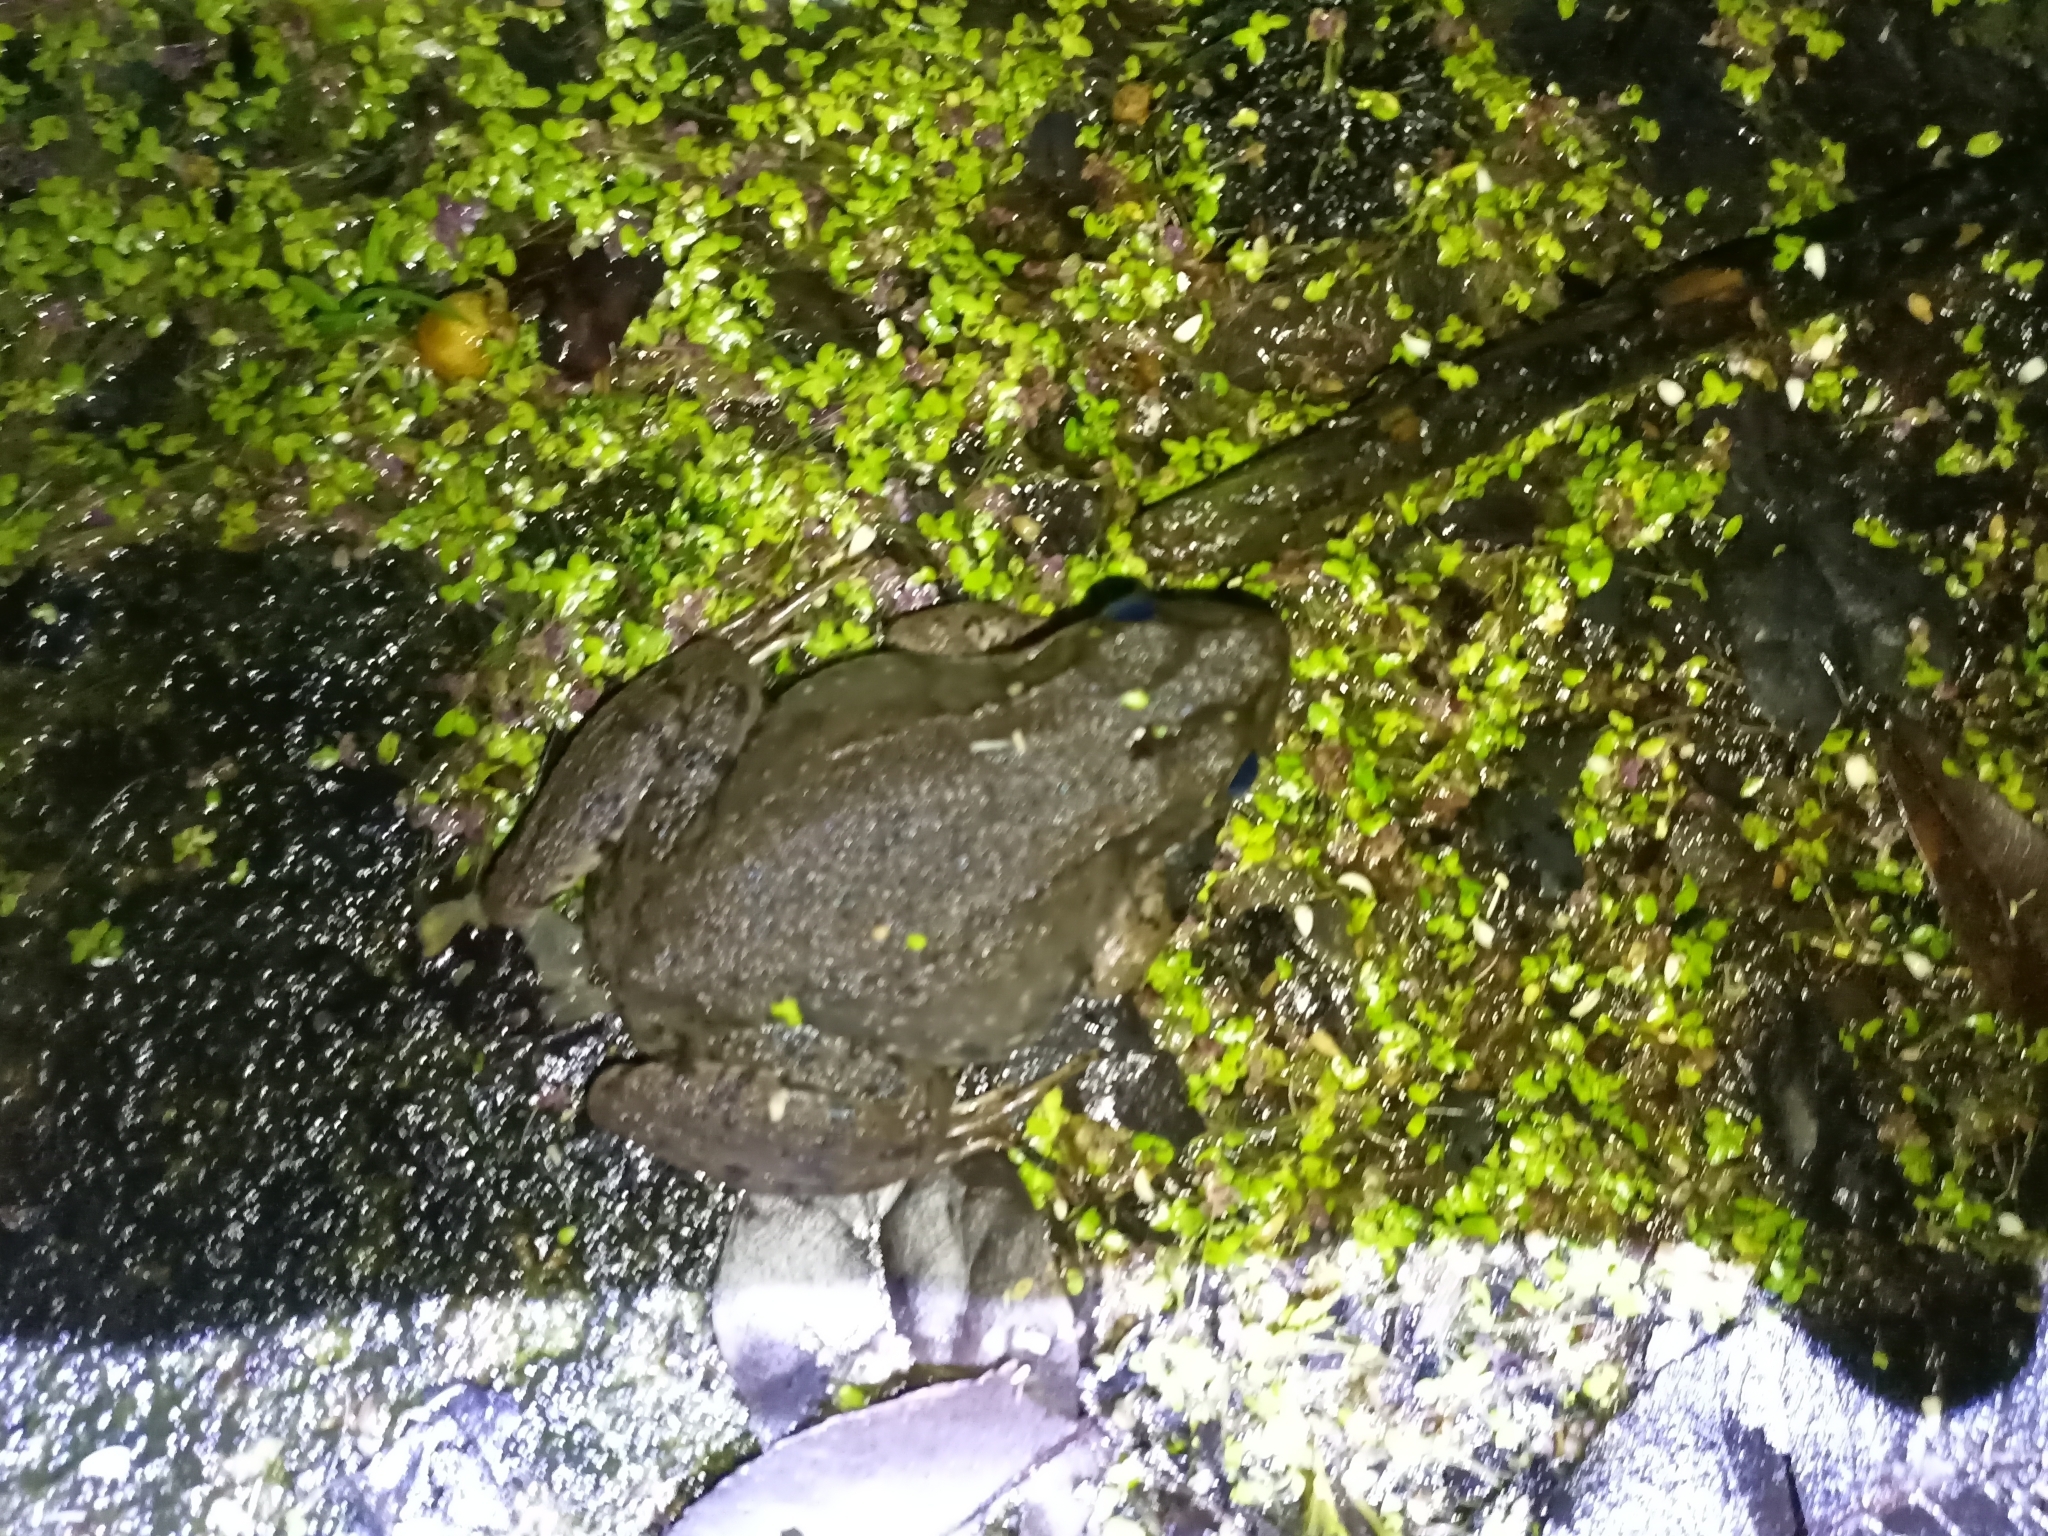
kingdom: Animalia
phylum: Chordata
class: Amphibia
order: Anura
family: Ranidae
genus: Lithobates
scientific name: Lithobates clamitans
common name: Green frog
